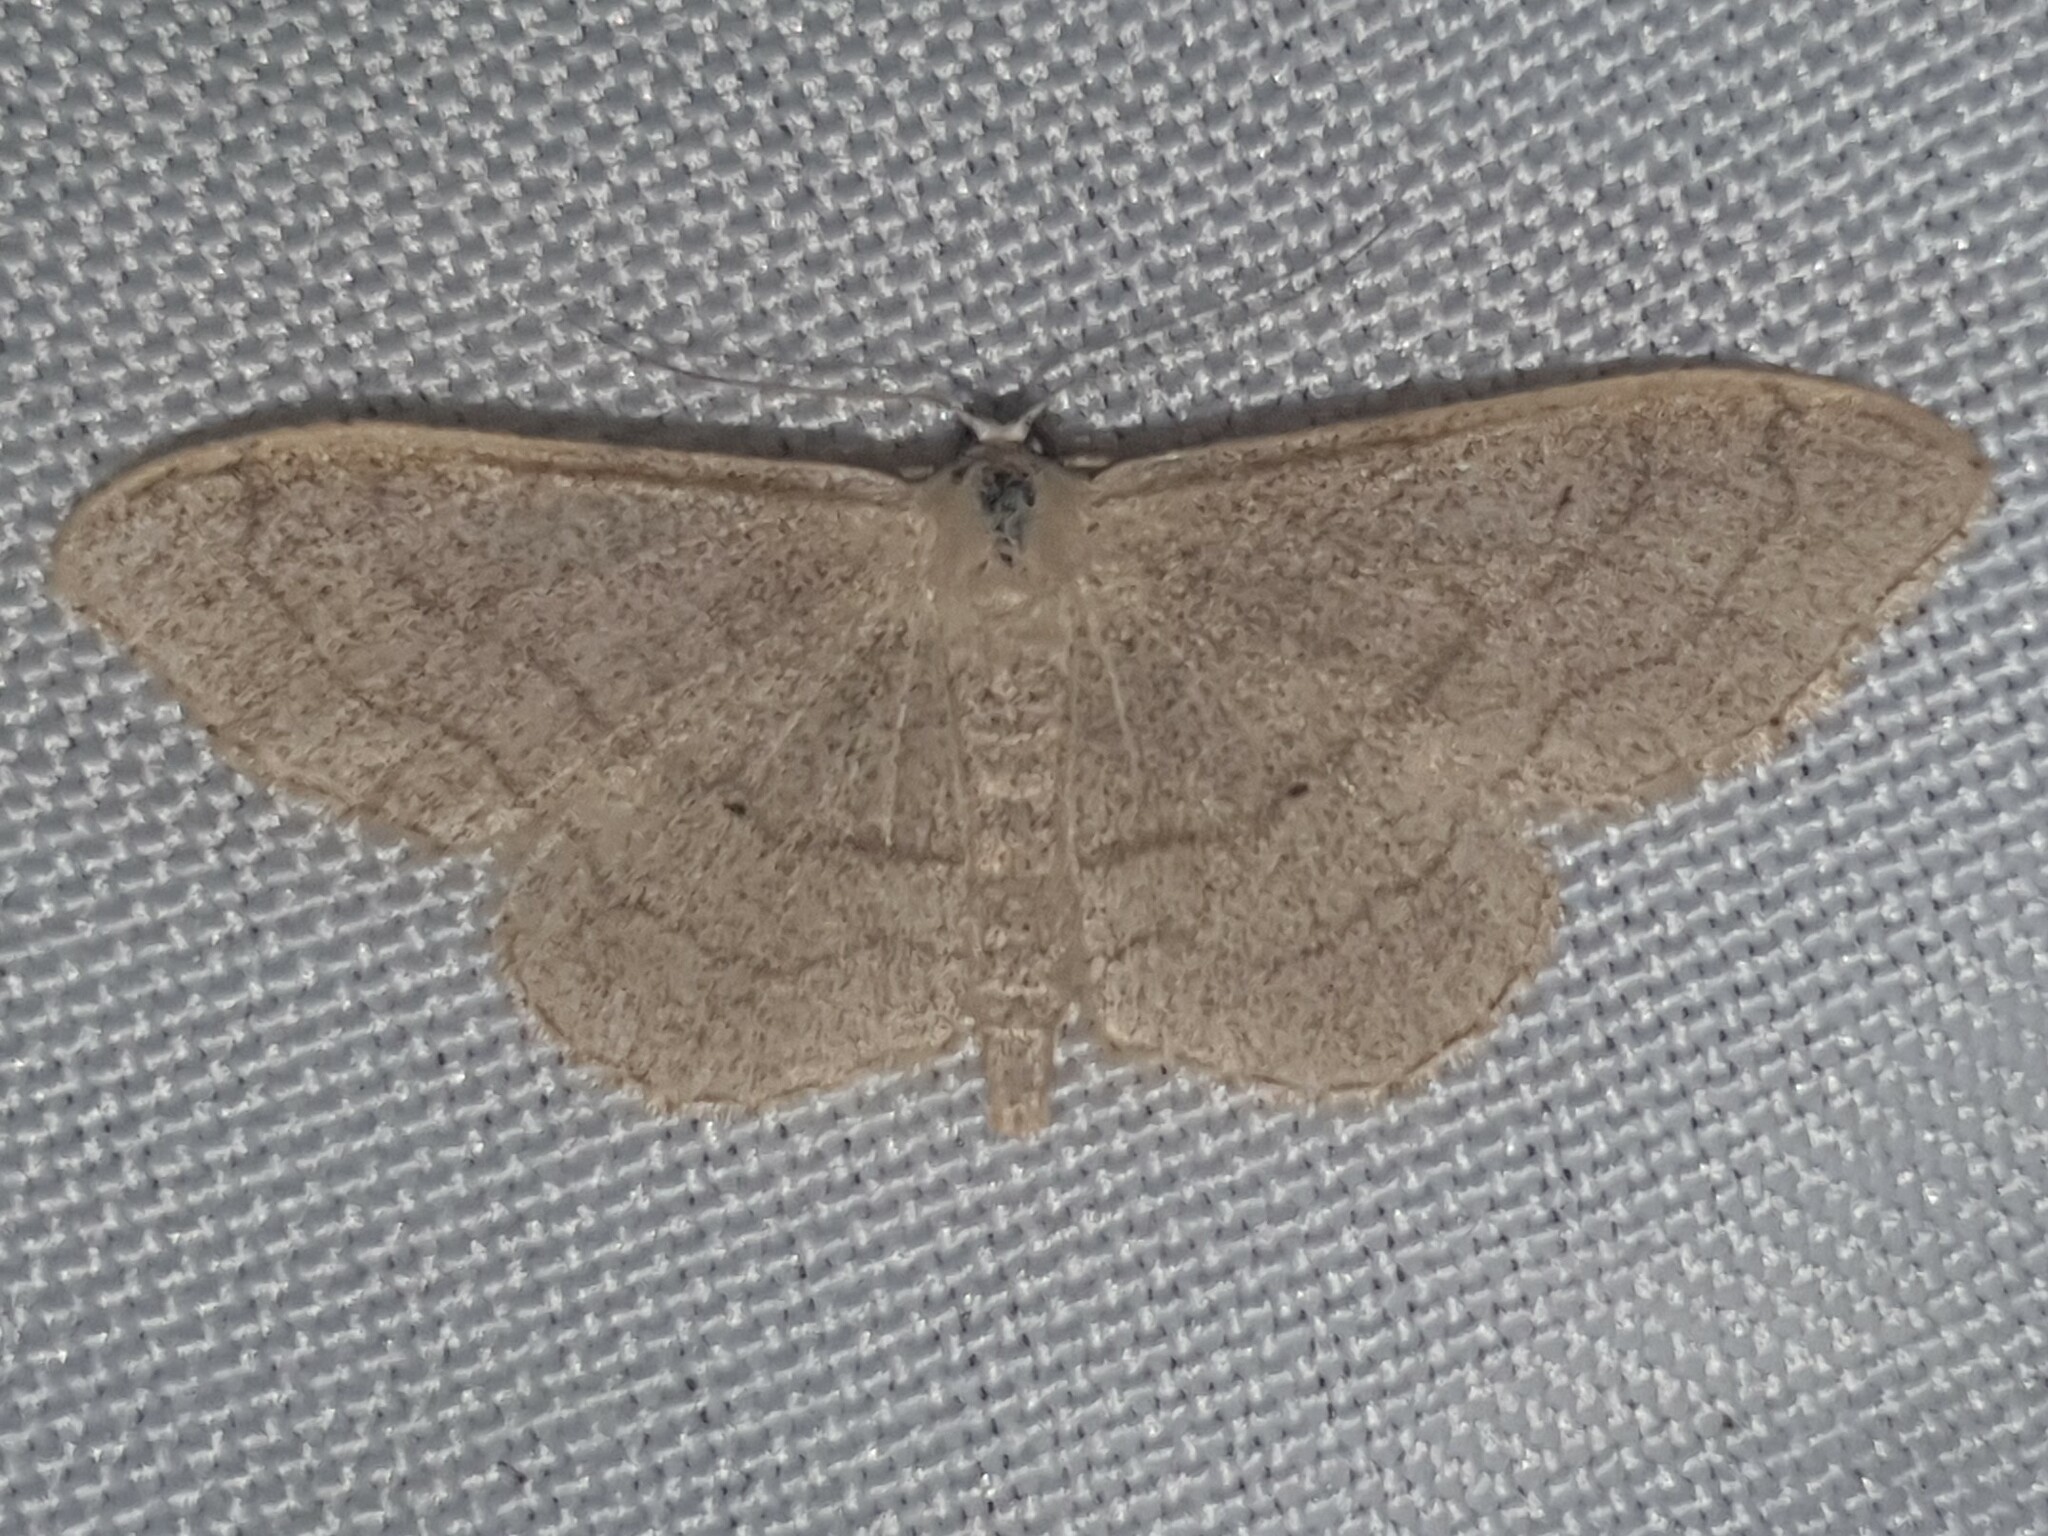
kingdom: Animalia
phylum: Arthropoda
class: Insecta
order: Lepidoptera
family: Geometridae
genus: Idaea
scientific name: Idaea aversata
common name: Riband wave
